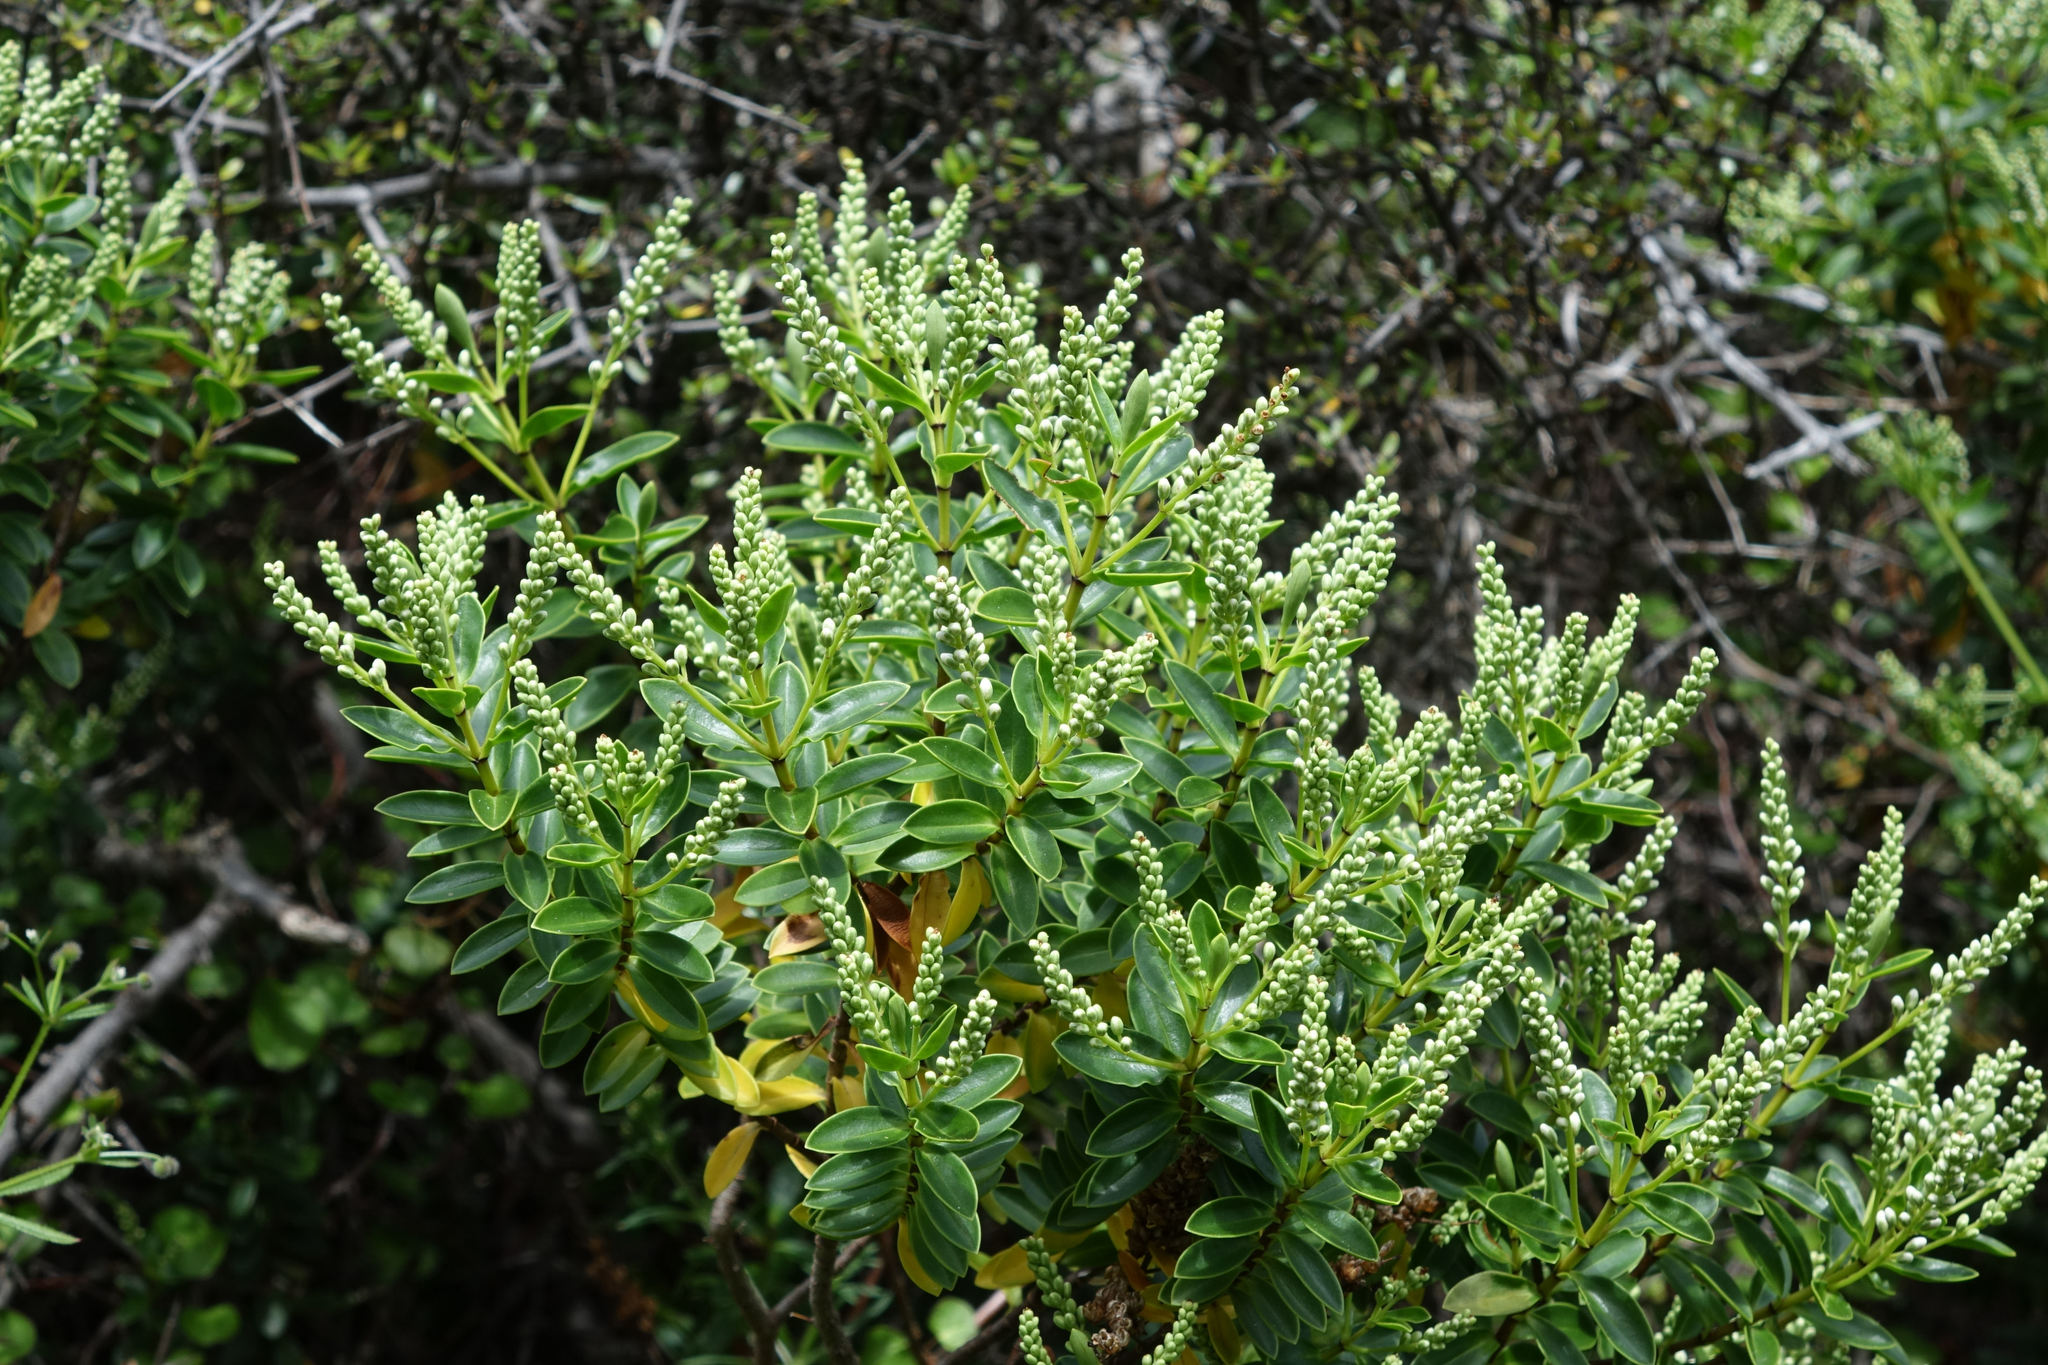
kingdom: Plantae
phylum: Tracheophyta
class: Magnoliopsida
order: Lamiales
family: Plantaginaceae
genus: Veronica
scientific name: Veronica rakaiensis
